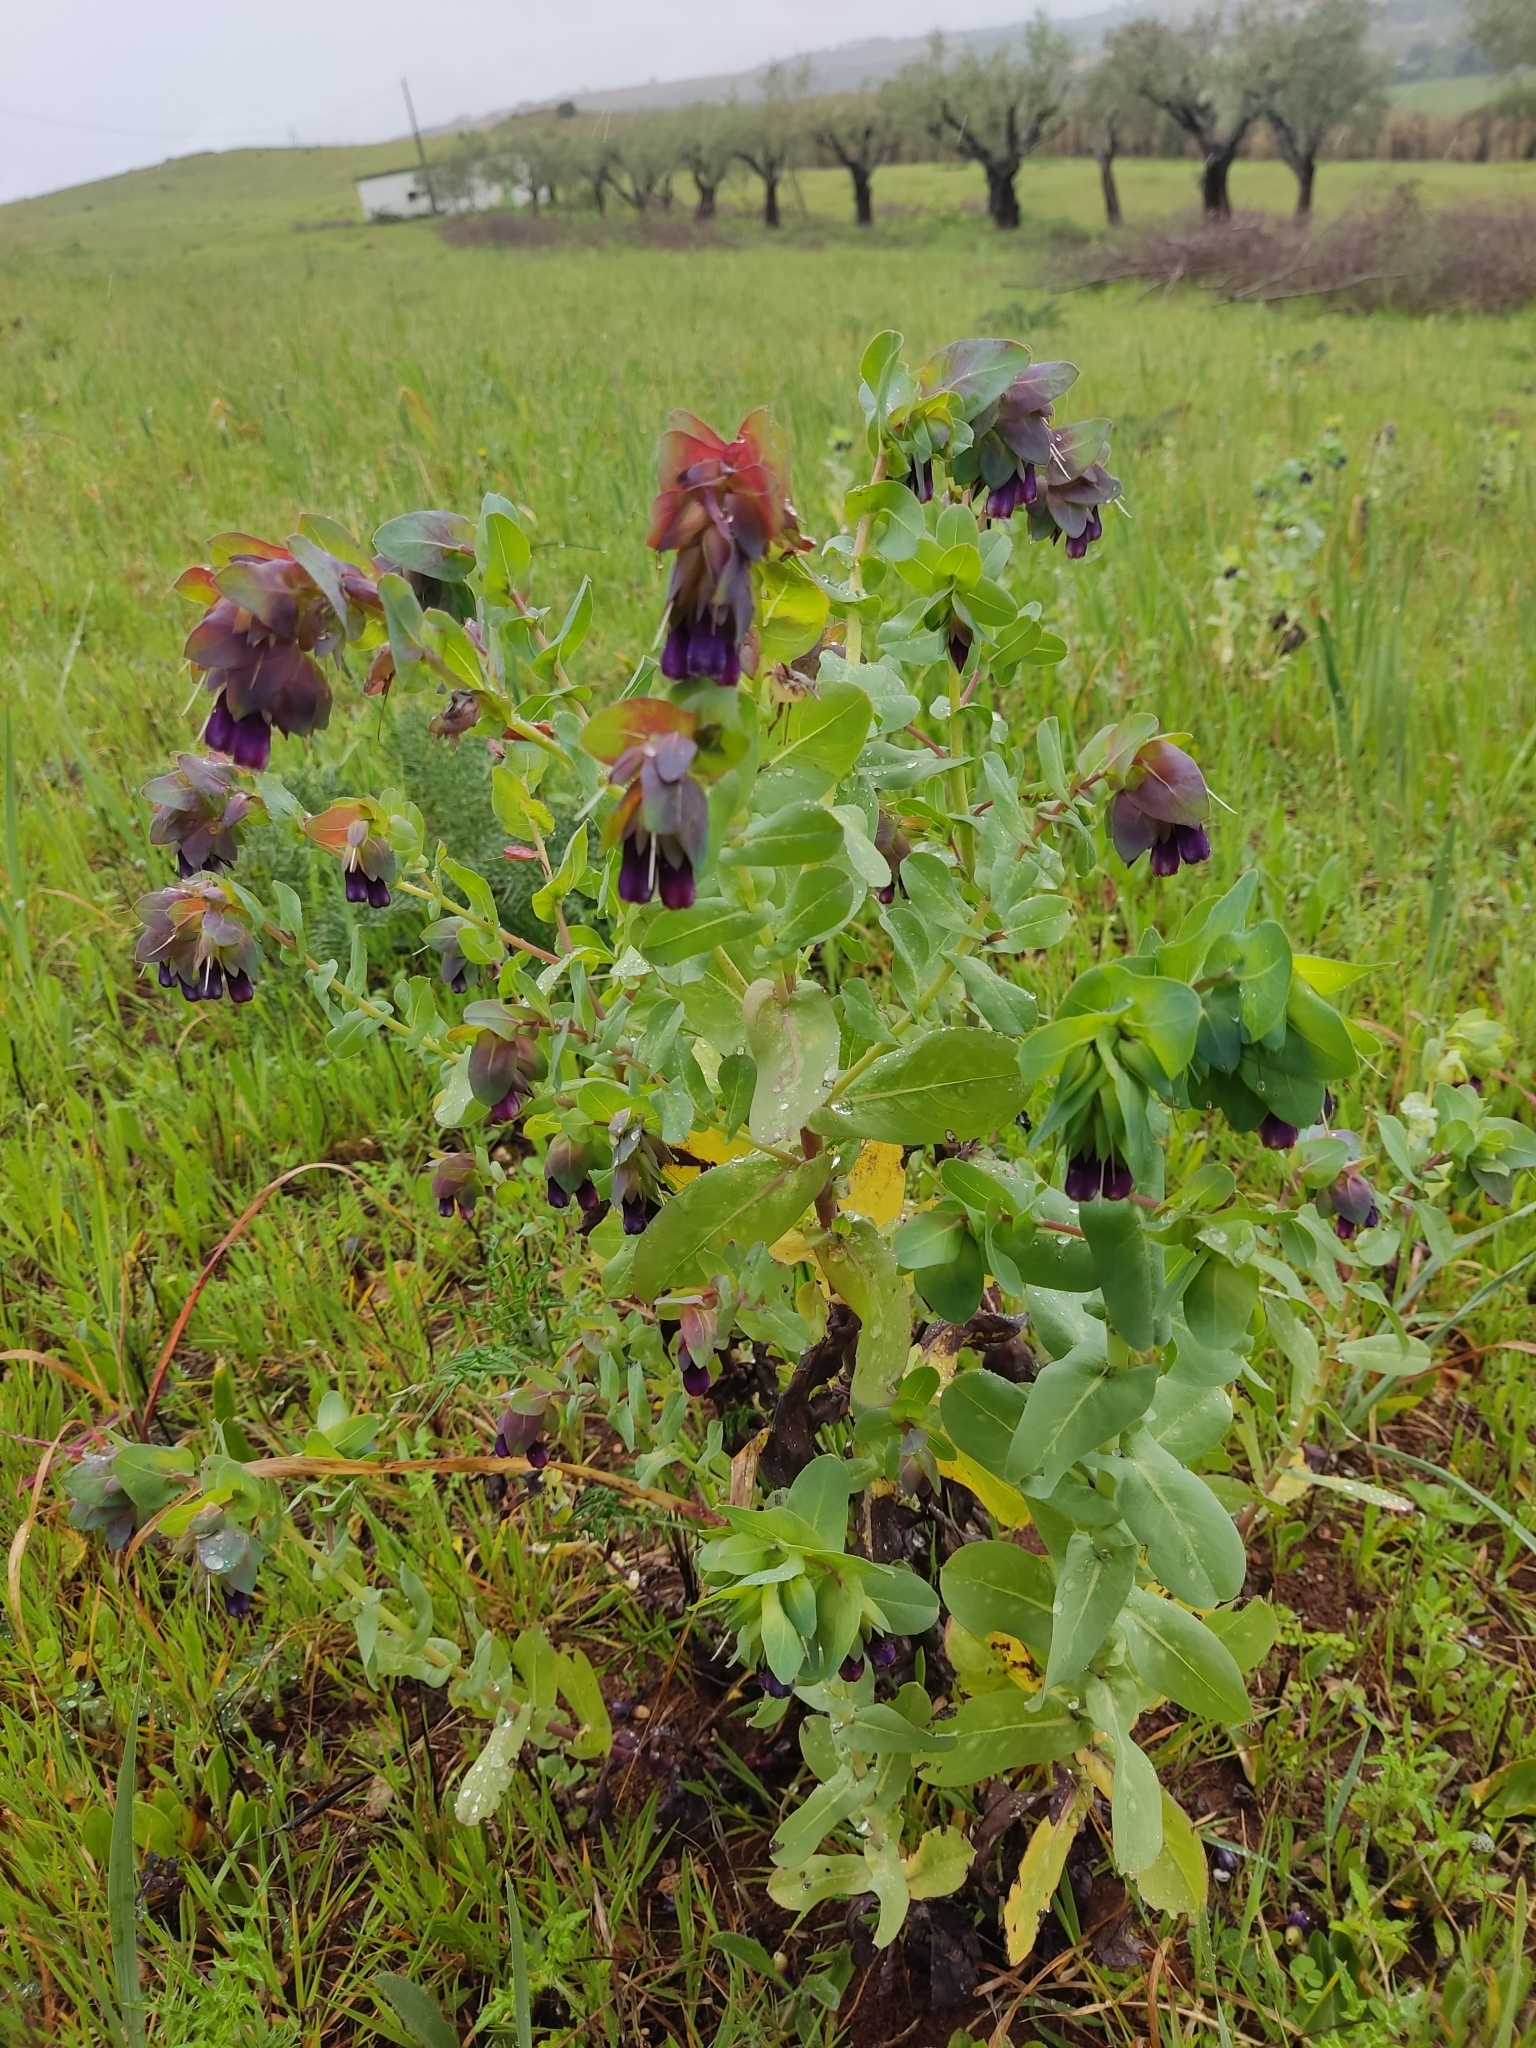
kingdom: Plantae
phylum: Tracheophyta
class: Magnoliopsida
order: Boraginales
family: Boraginaceae
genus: Cerinthe
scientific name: Cerinthe major
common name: Greater honeywort
